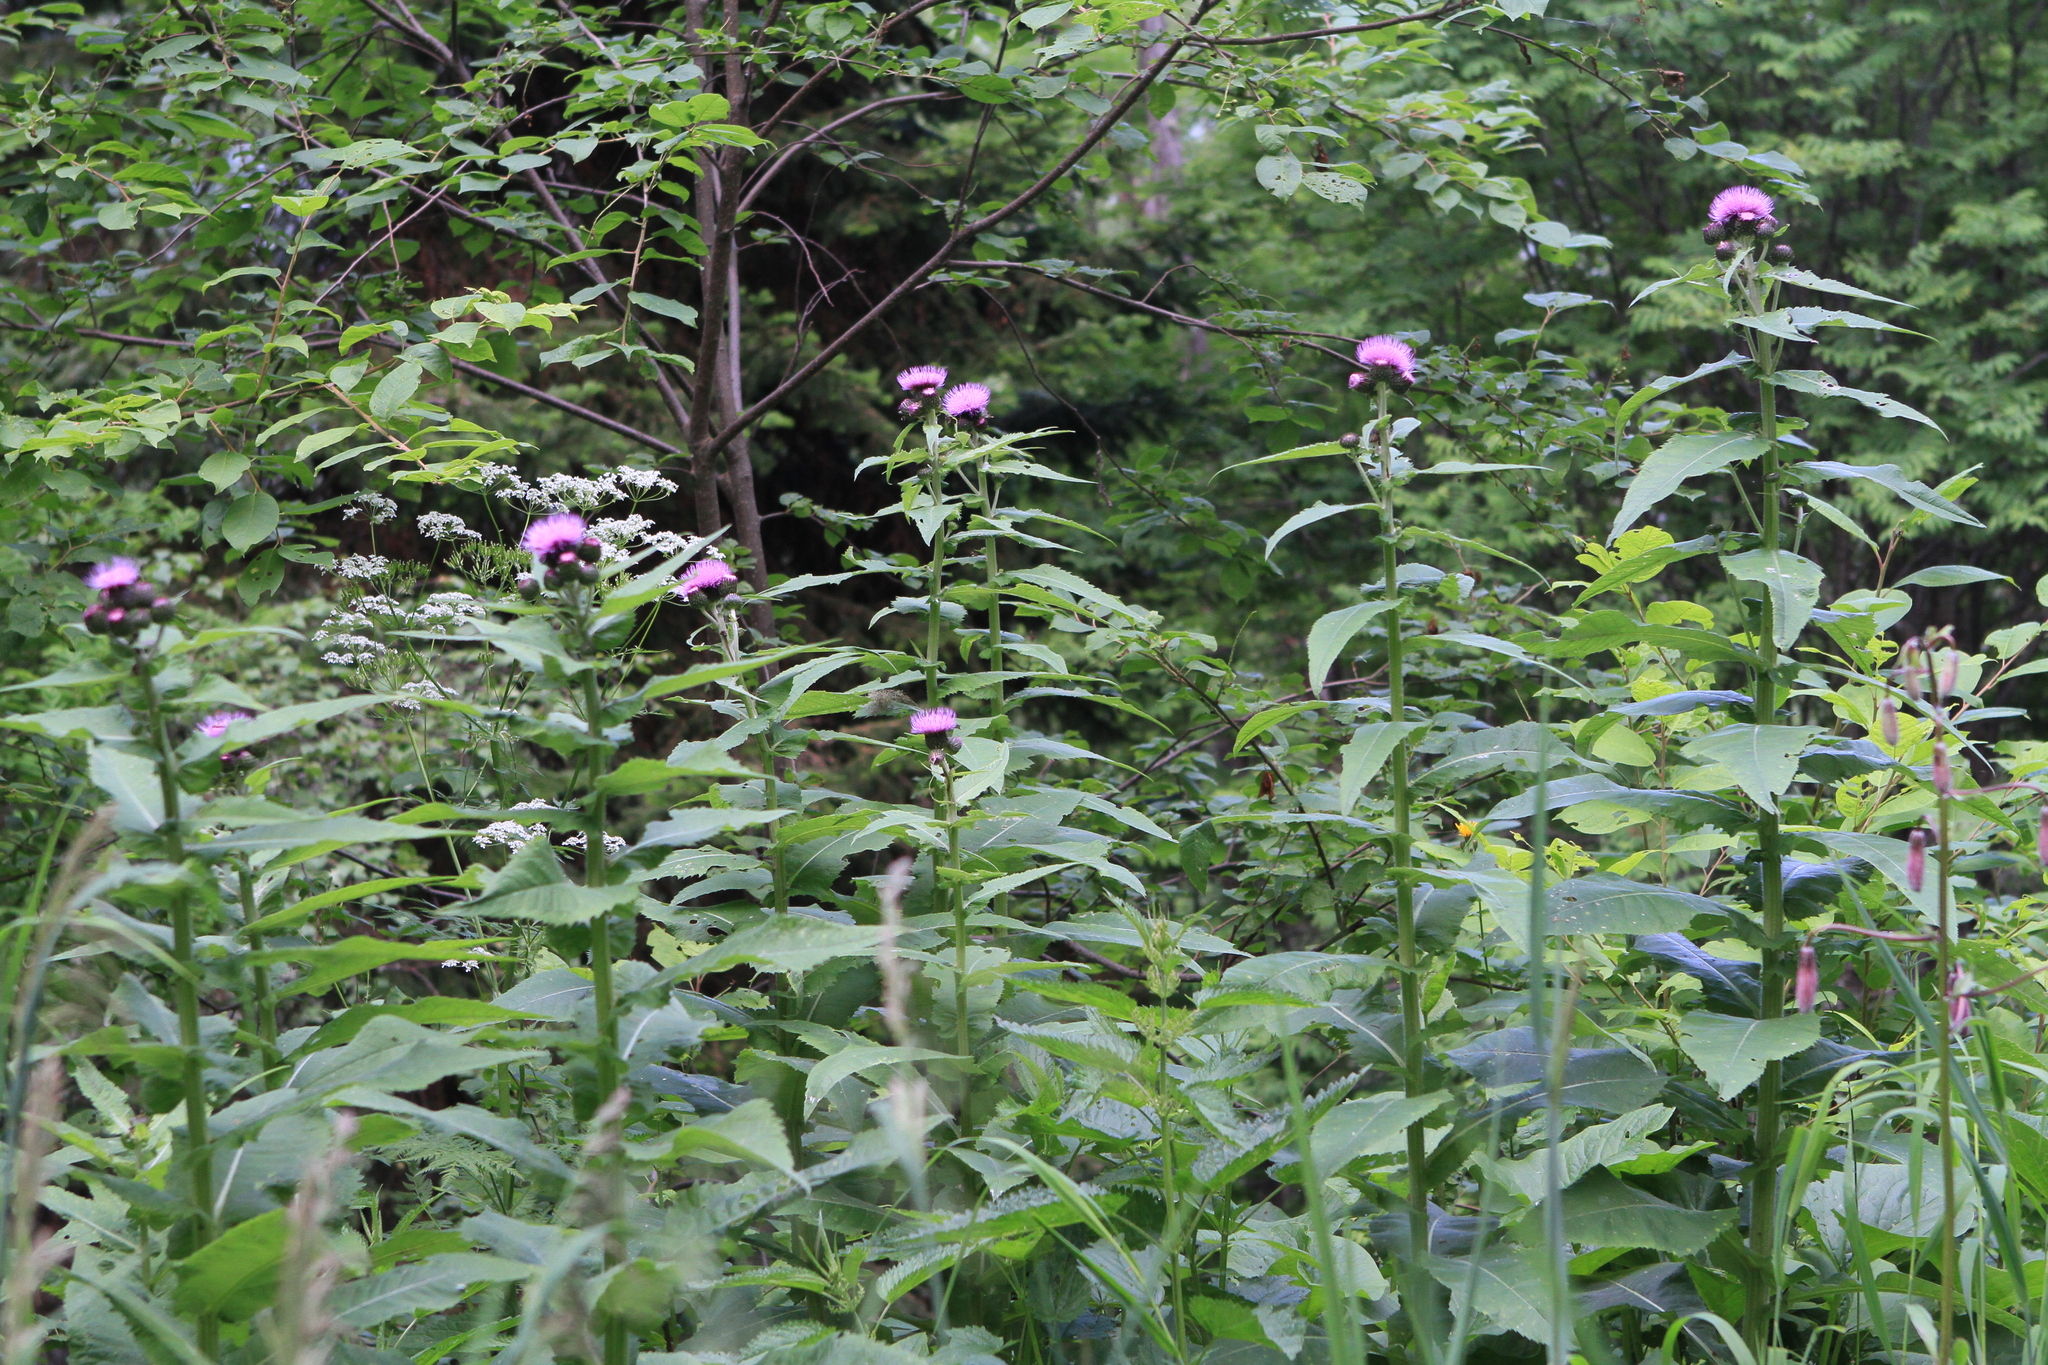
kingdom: Plantae
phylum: Tracheophyta
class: Magnoliopsida
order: Asterales
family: Asteraceae
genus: Cirsium
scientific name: Cirsium helenioides
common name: Melancholy thistle
